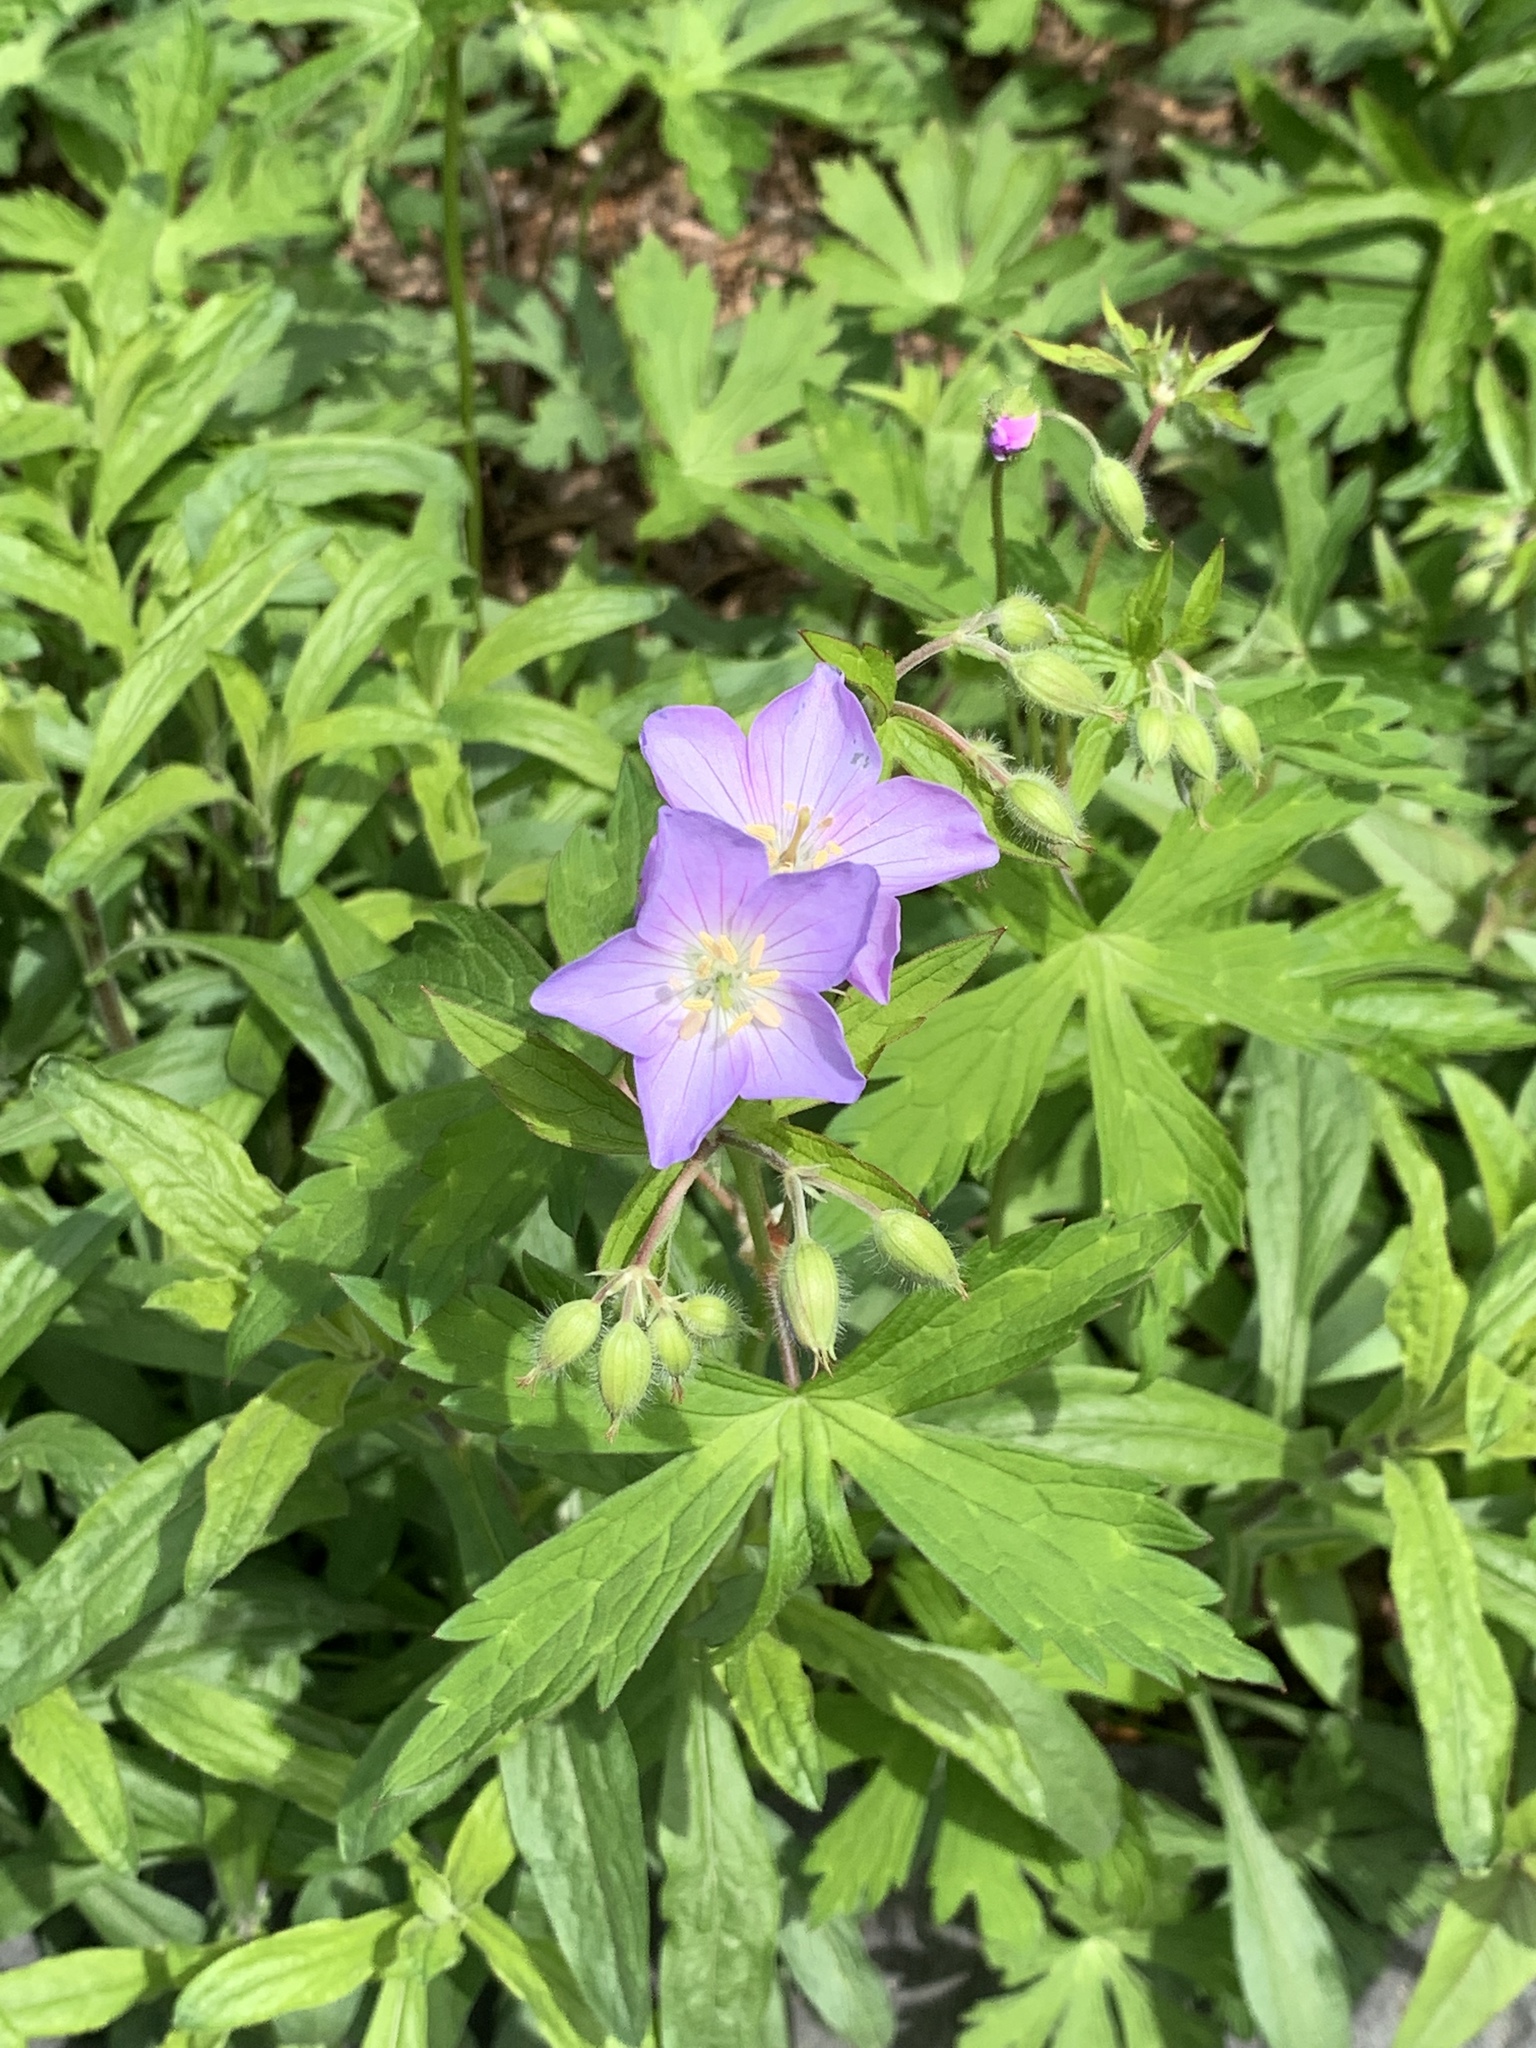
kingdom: Plantae
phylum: Tracheophyta
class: Magnoliopsida
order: Geraniales
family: Geraniaceae
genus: Geranium
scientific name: Geranium maculatum
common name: Spotted geranium
